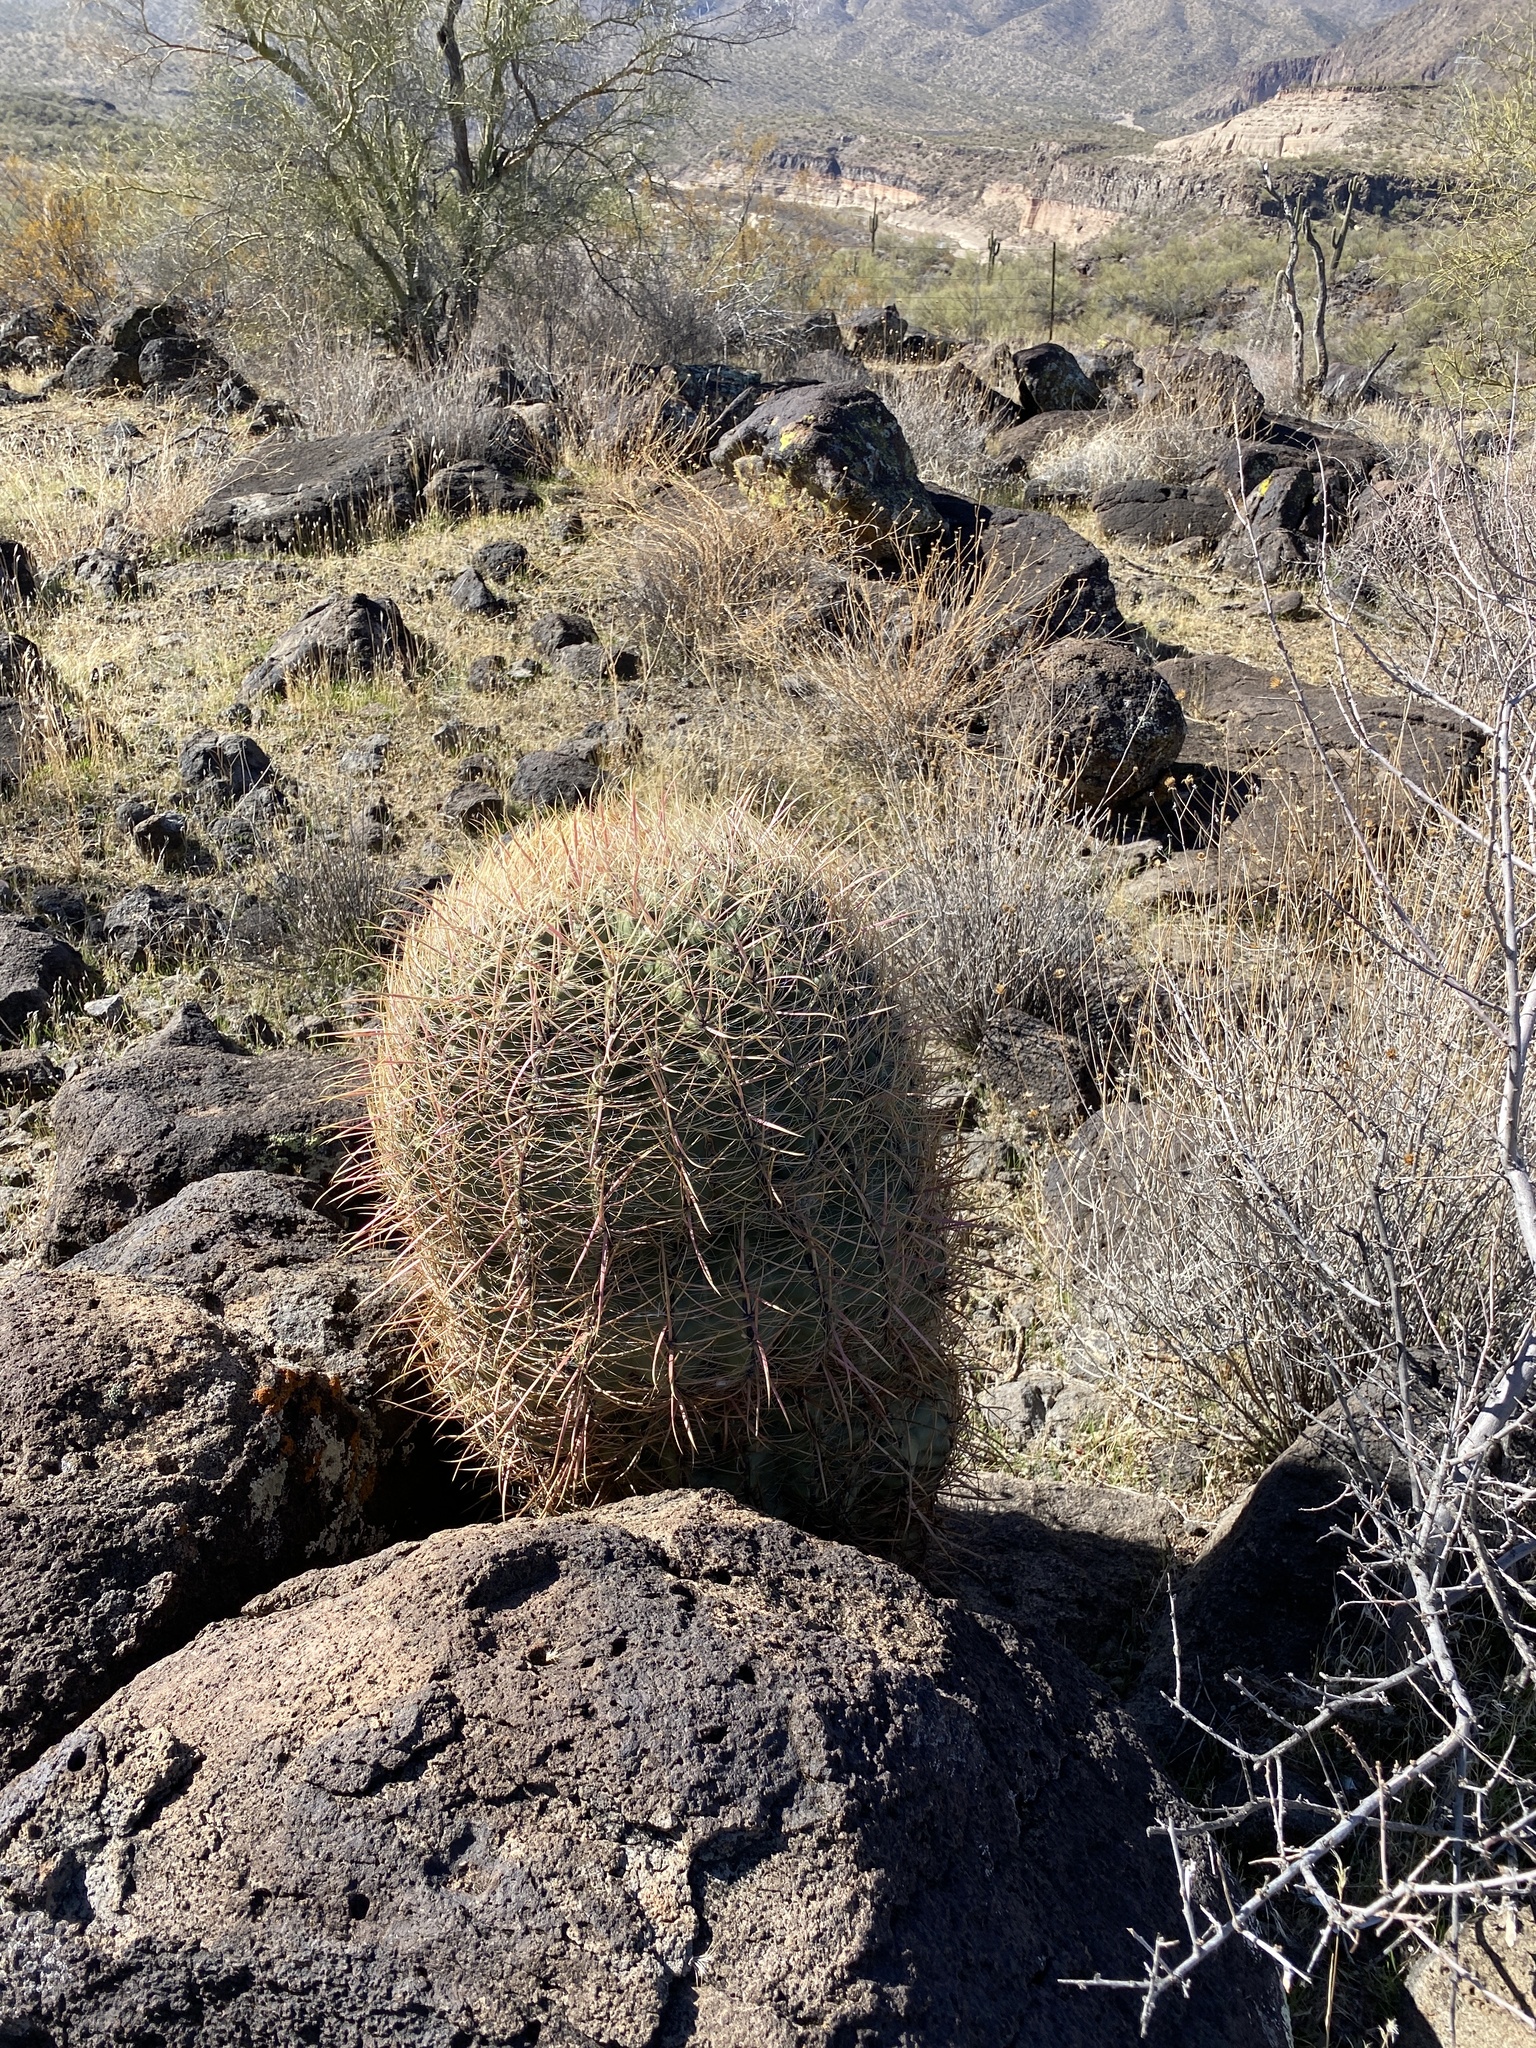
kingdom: Plantae
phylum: Tracheophyta
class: Magnoliopsida
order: Caryophyllales
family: Cactaceae
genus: Ferocactus
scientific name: Ferocactus cylindraceus
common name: California barrel cactus
